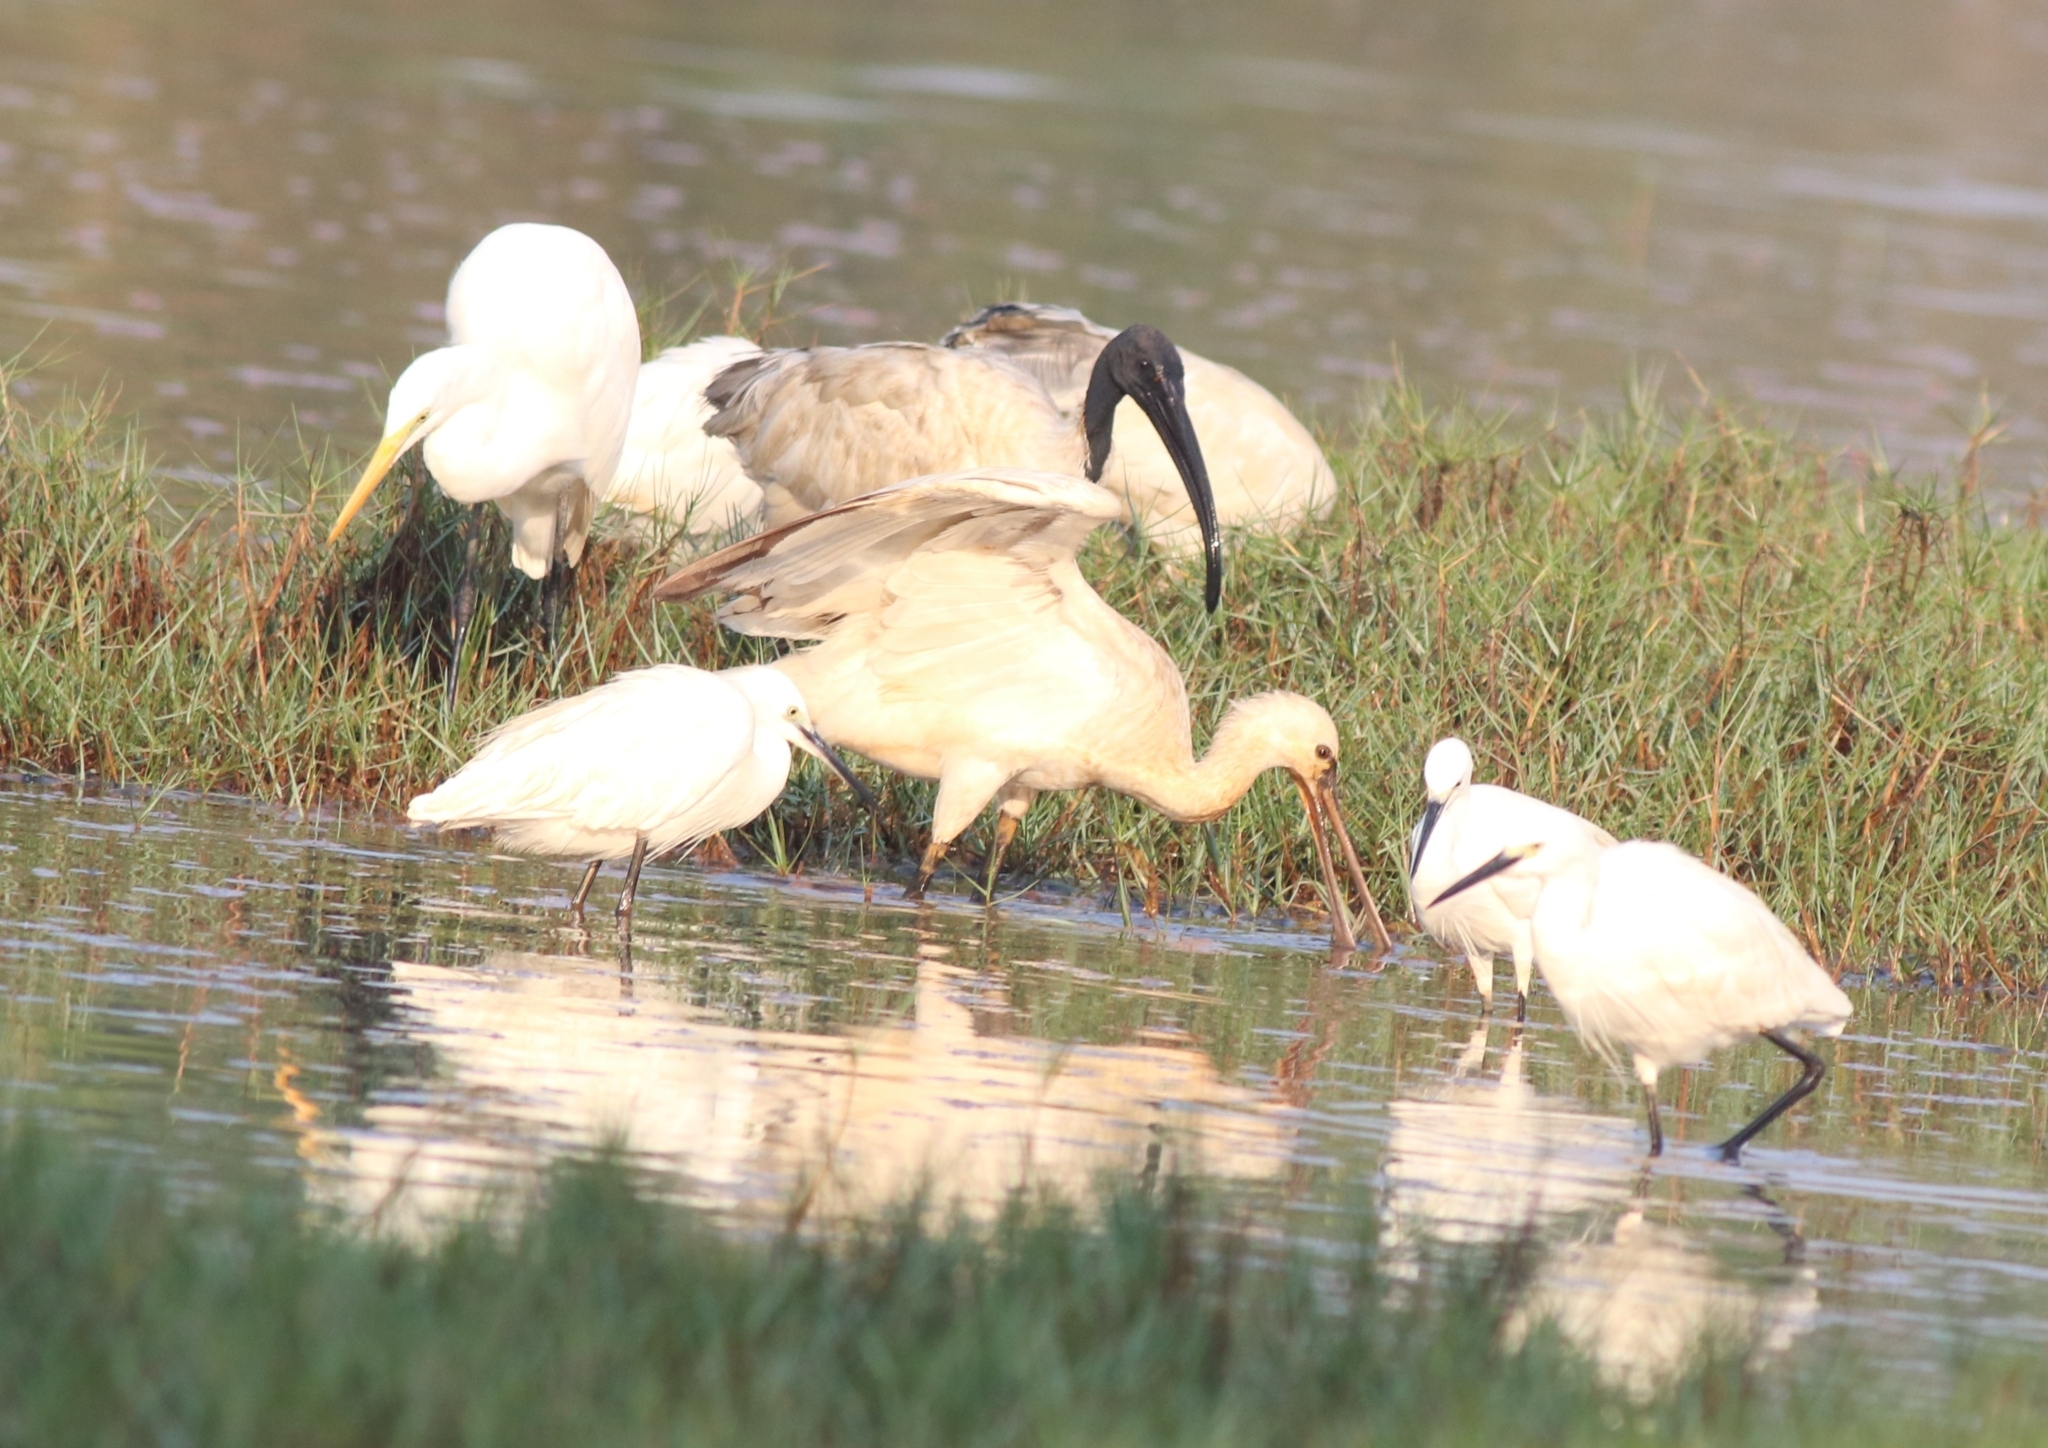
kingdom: Animalia
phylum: Chordata
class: Aves
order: Pelecaniformes
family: Threskiornithidae
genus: Threskiornis
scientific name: Threskiornis melanocephalus
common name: Black-headed ibis
